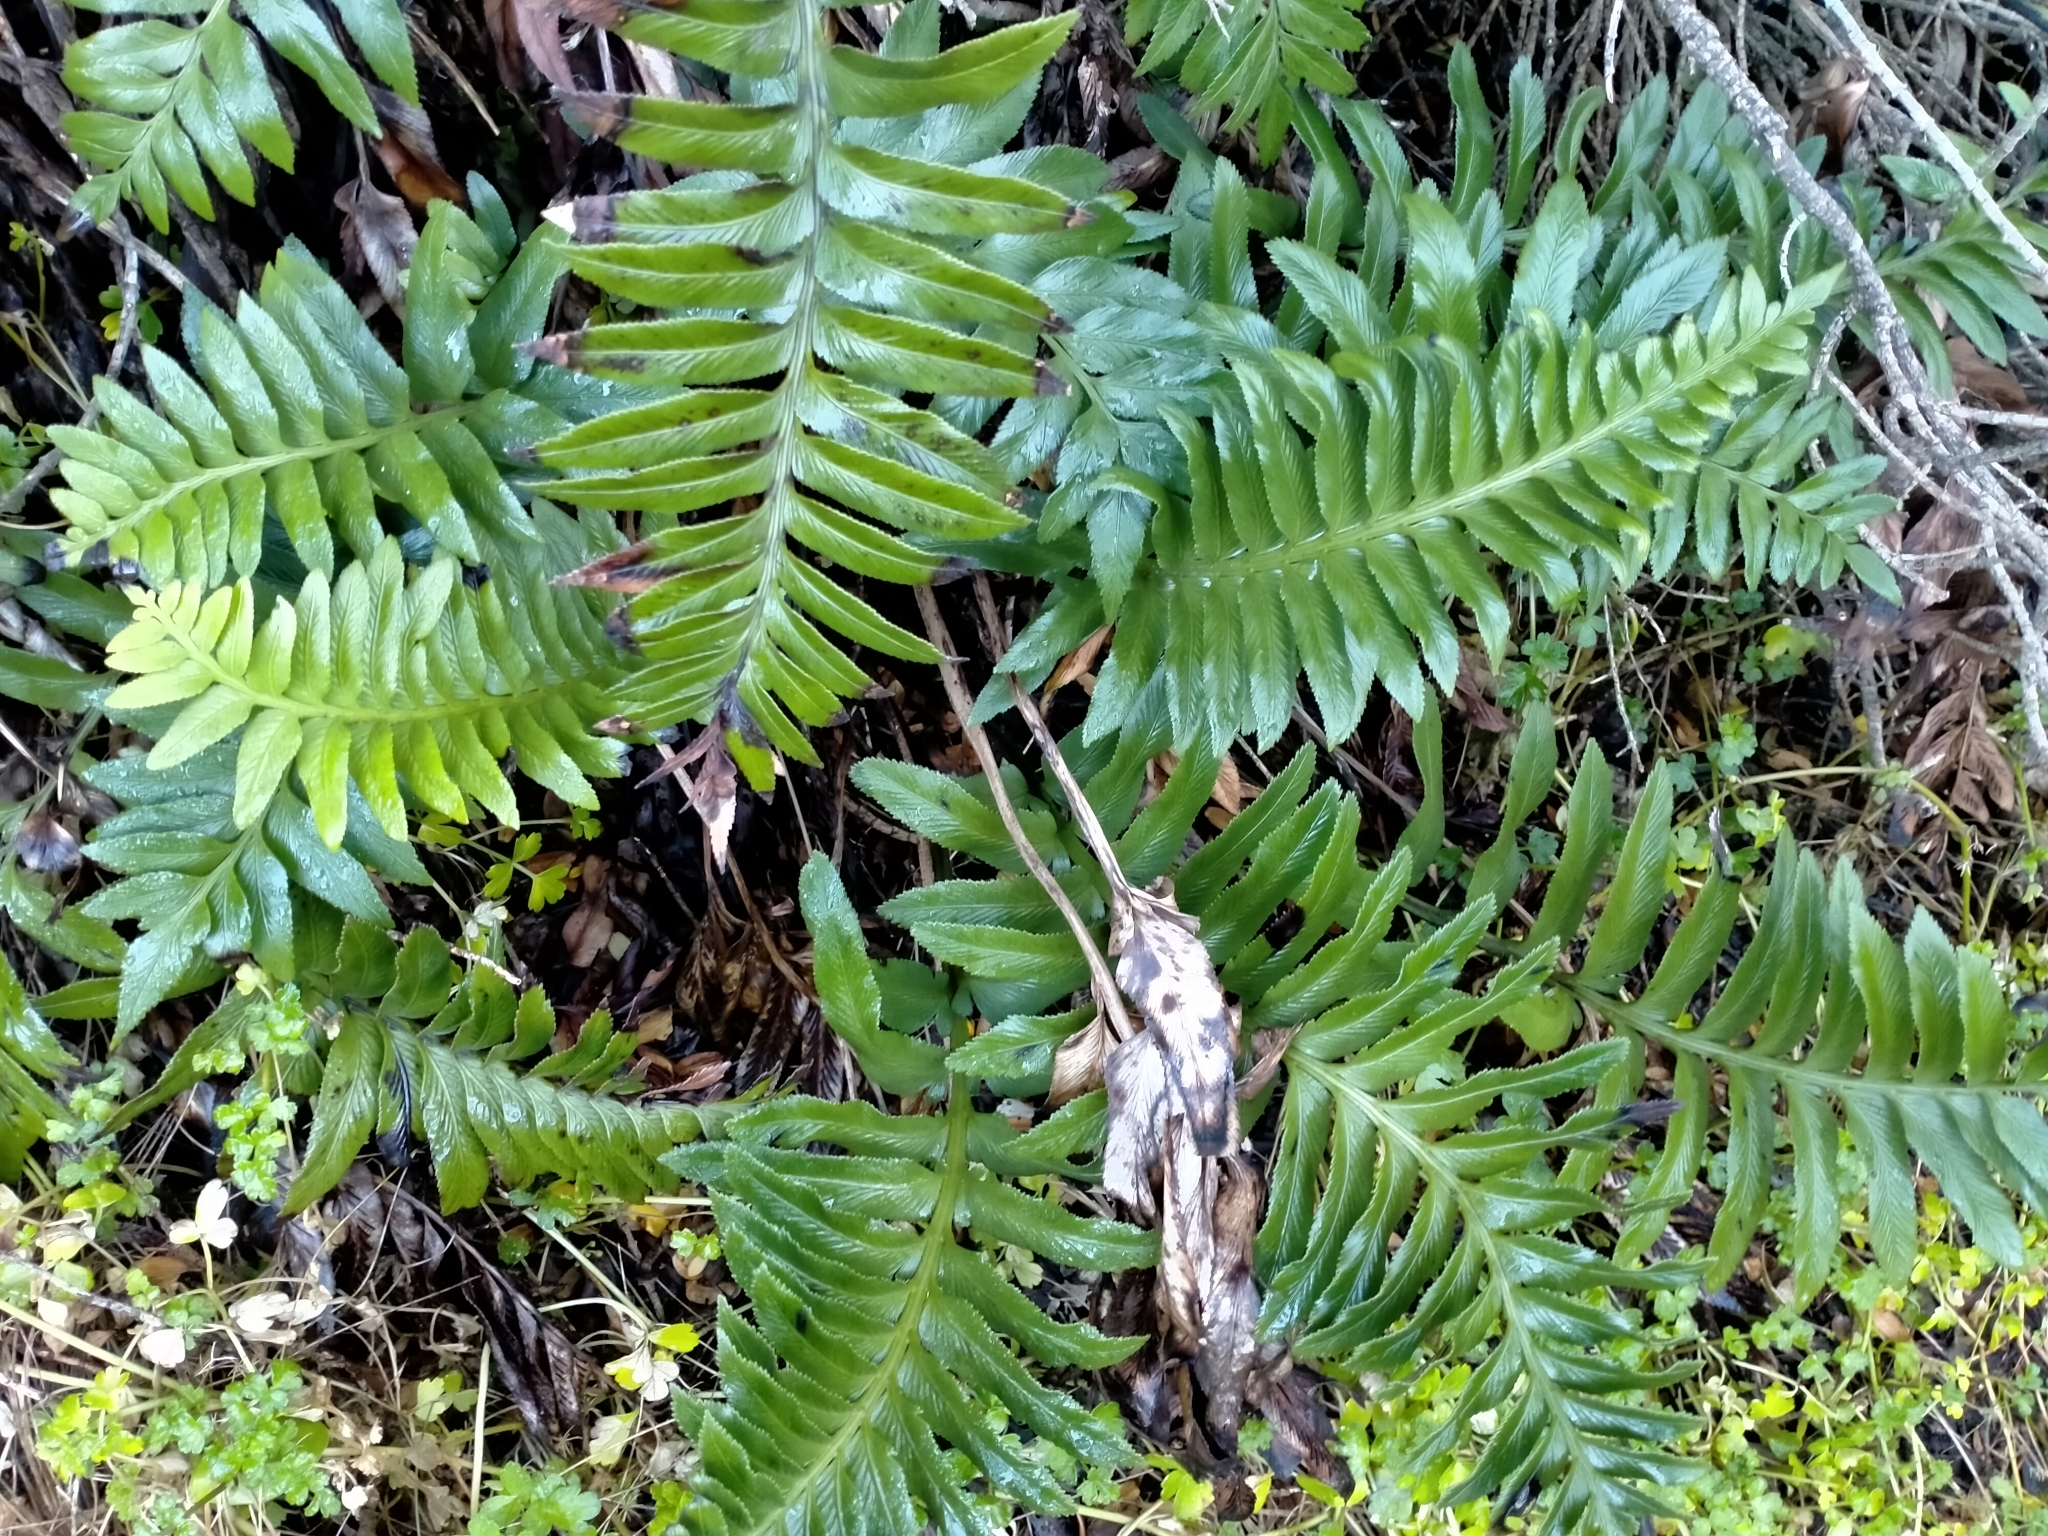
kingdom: Plantae
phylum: Tracheophyta
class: Polypodiopsida
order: Polypodiales
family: Aspleniaceae
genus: Asplenium
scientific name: Asplenium obtusatum
